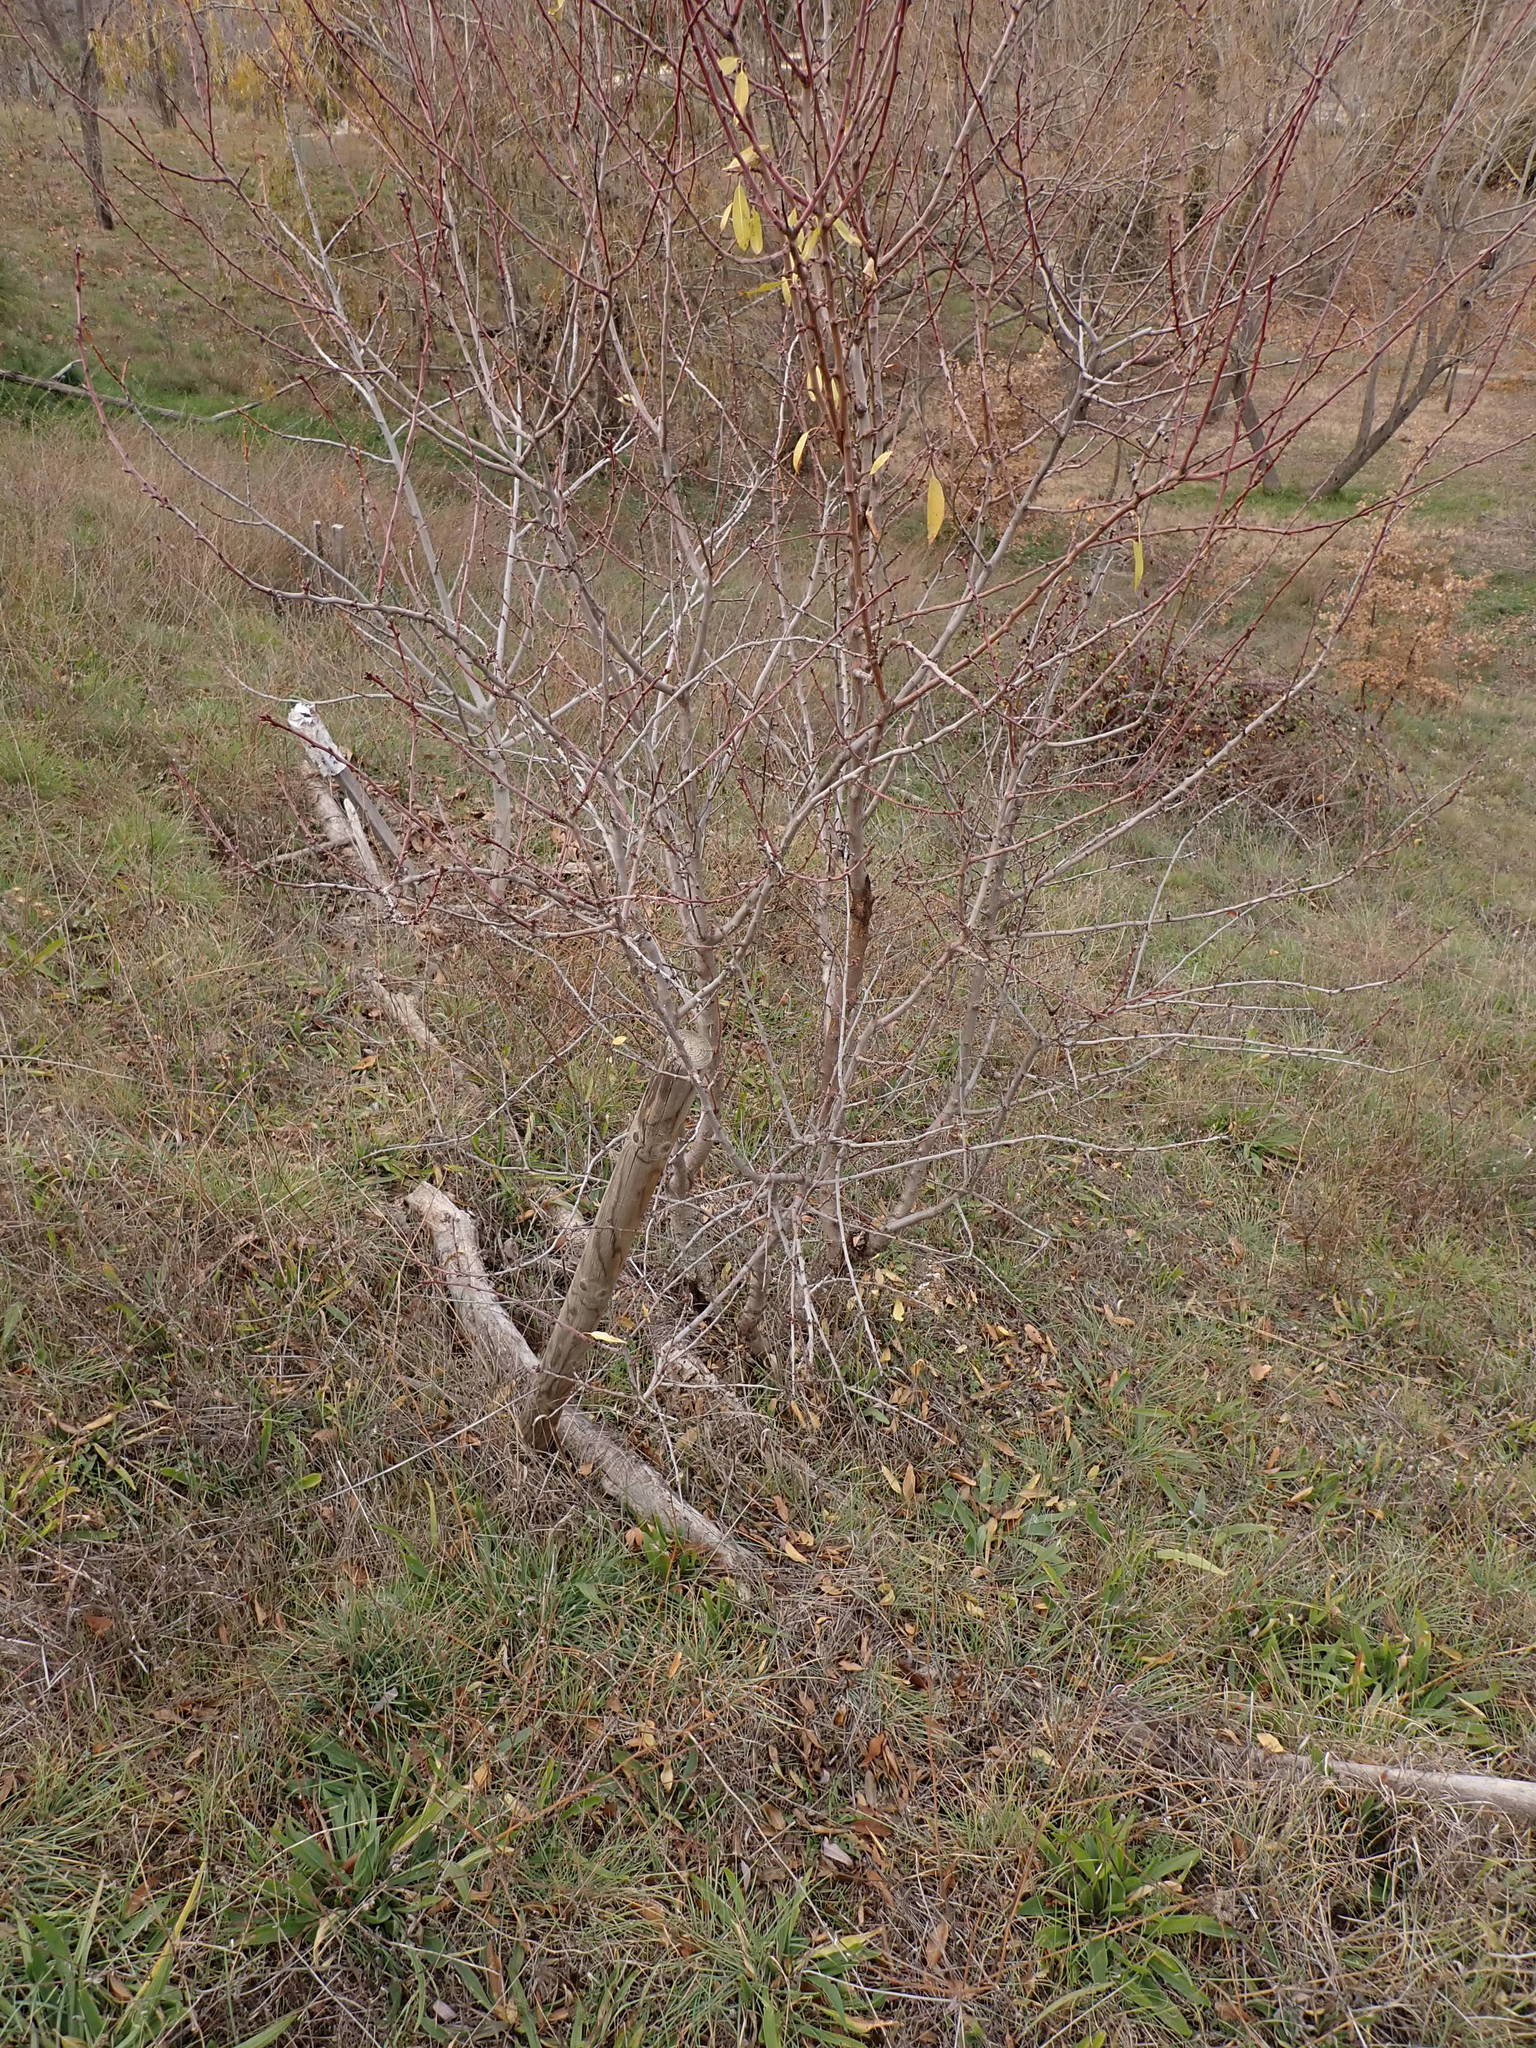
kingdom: Plantae
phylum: Tracheophyta
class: Magnoliopsida
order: Rosales
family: Rosaceae
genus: Prunus
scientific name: Prunus amygdalus
